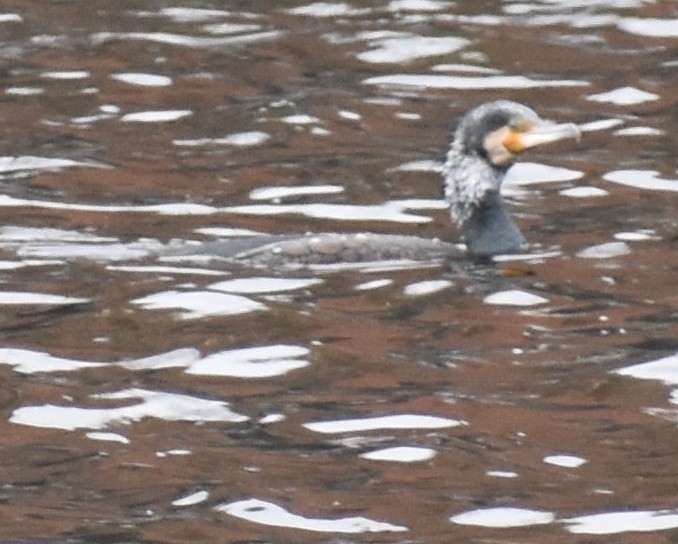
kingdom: Animalia
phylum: Chordata
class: Aves
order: Suliformes
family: Phalacrocoracidae
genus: Phalacrocorax
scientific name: Phalacrocorax carbo
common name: Great cormorant
